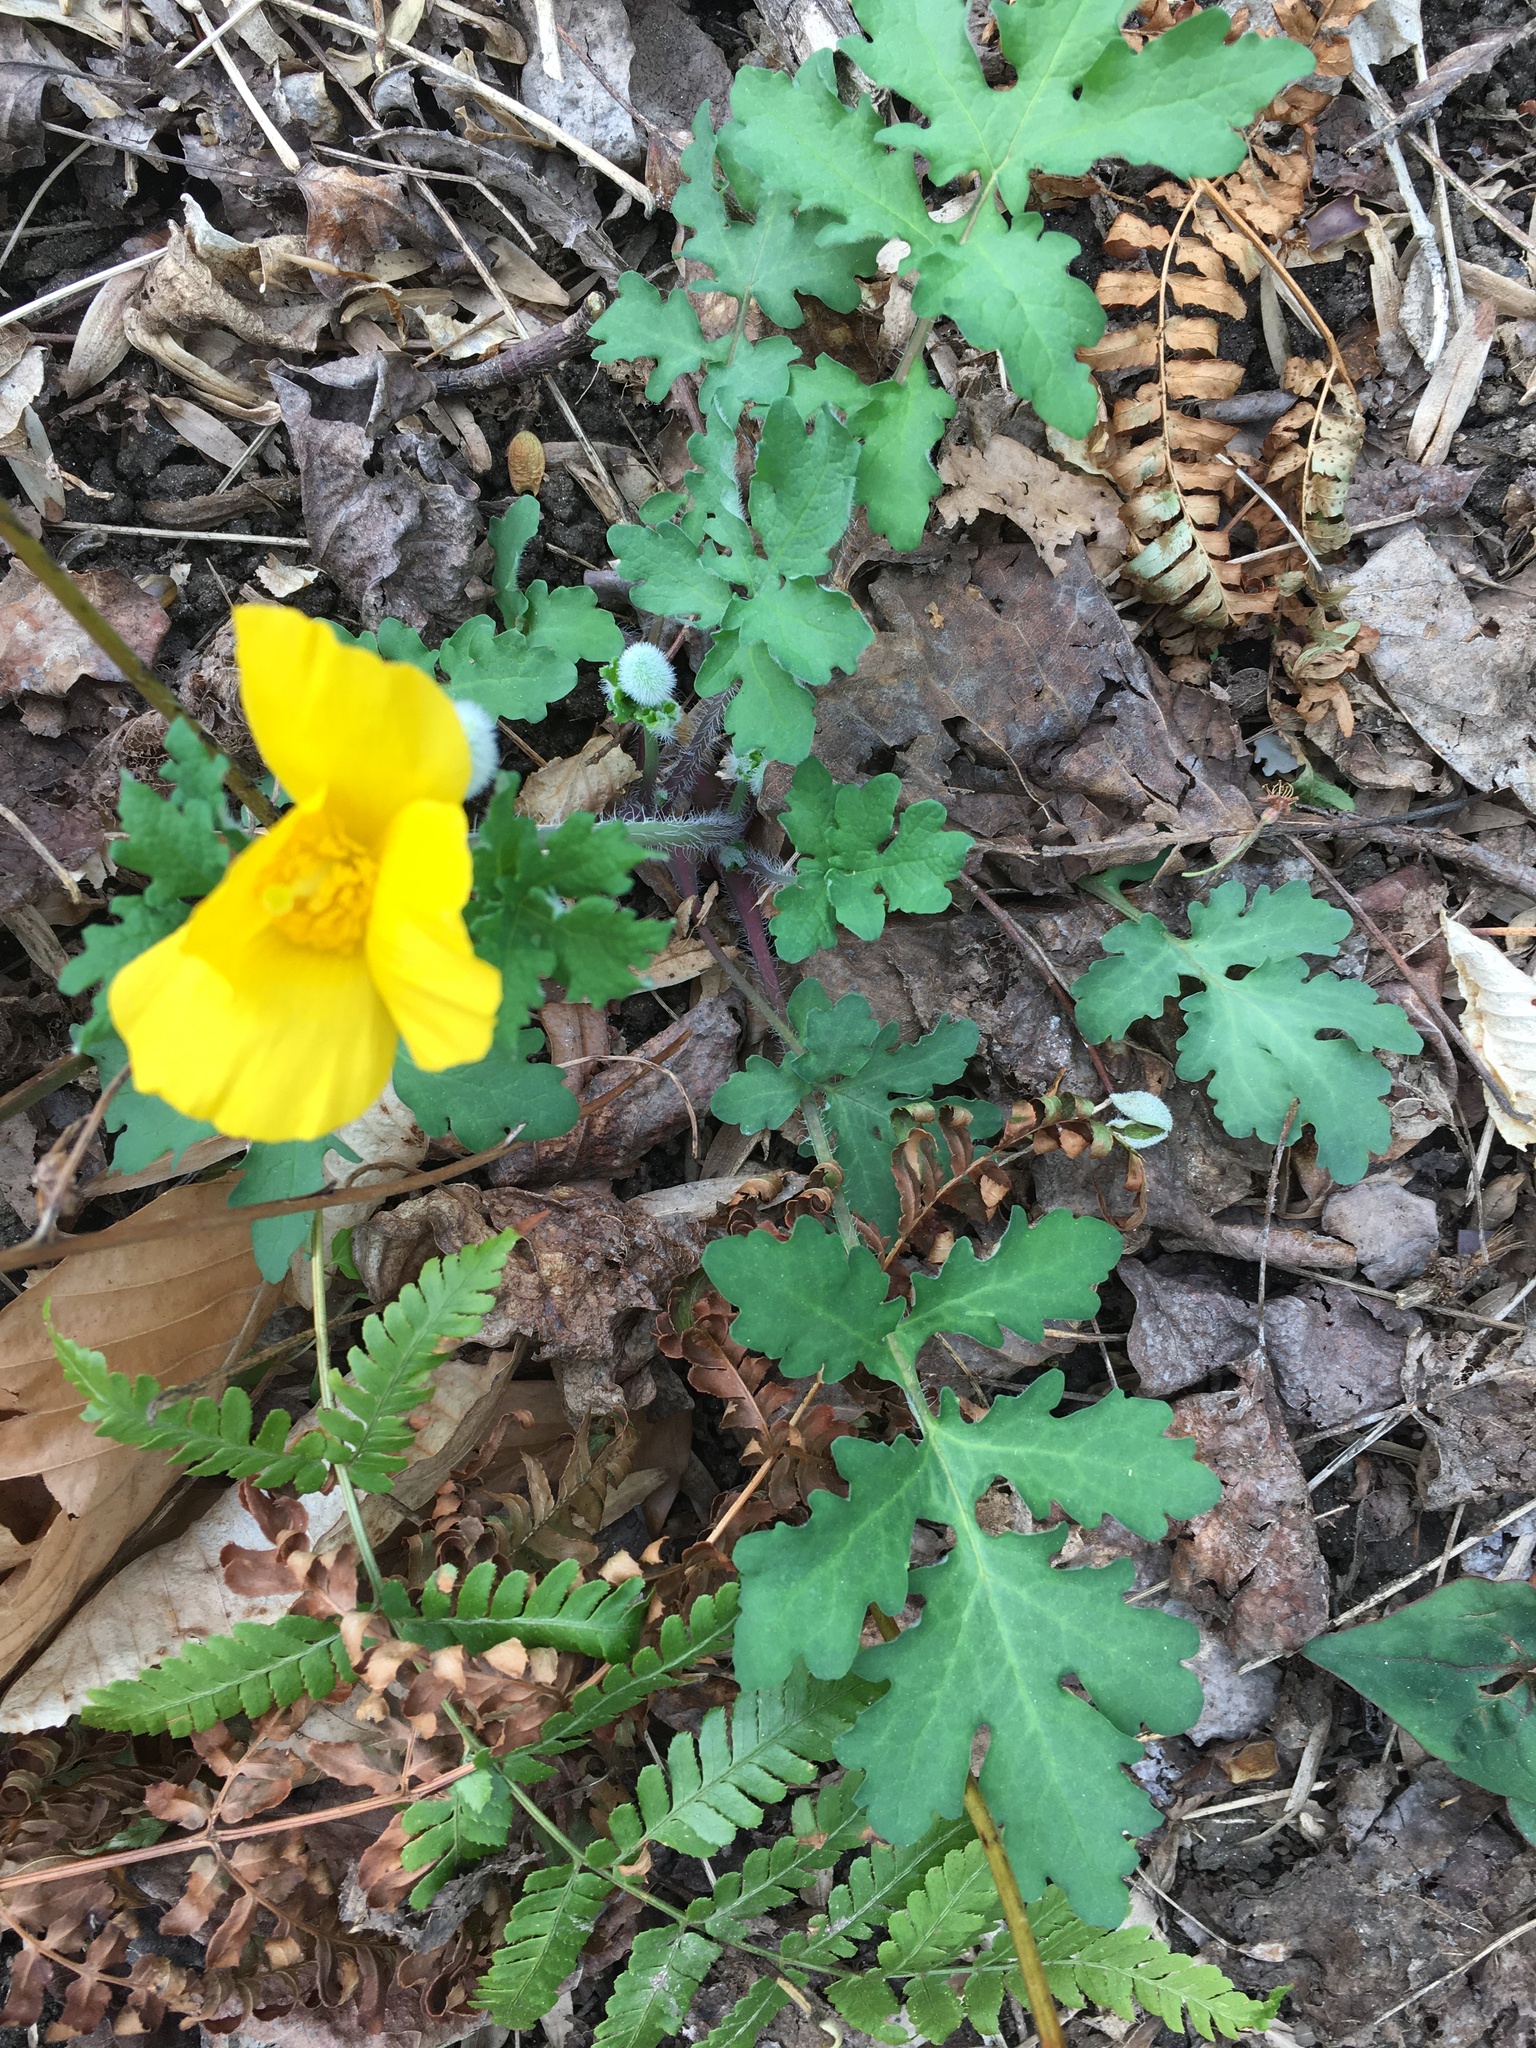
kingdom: Plantae
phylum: Tracheophyta
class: Magnoliopsida
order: Ranunculales
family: Papaveraceae
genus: Stylophorum
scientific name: Stylophorum diphyllum
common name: Celandine poppy
